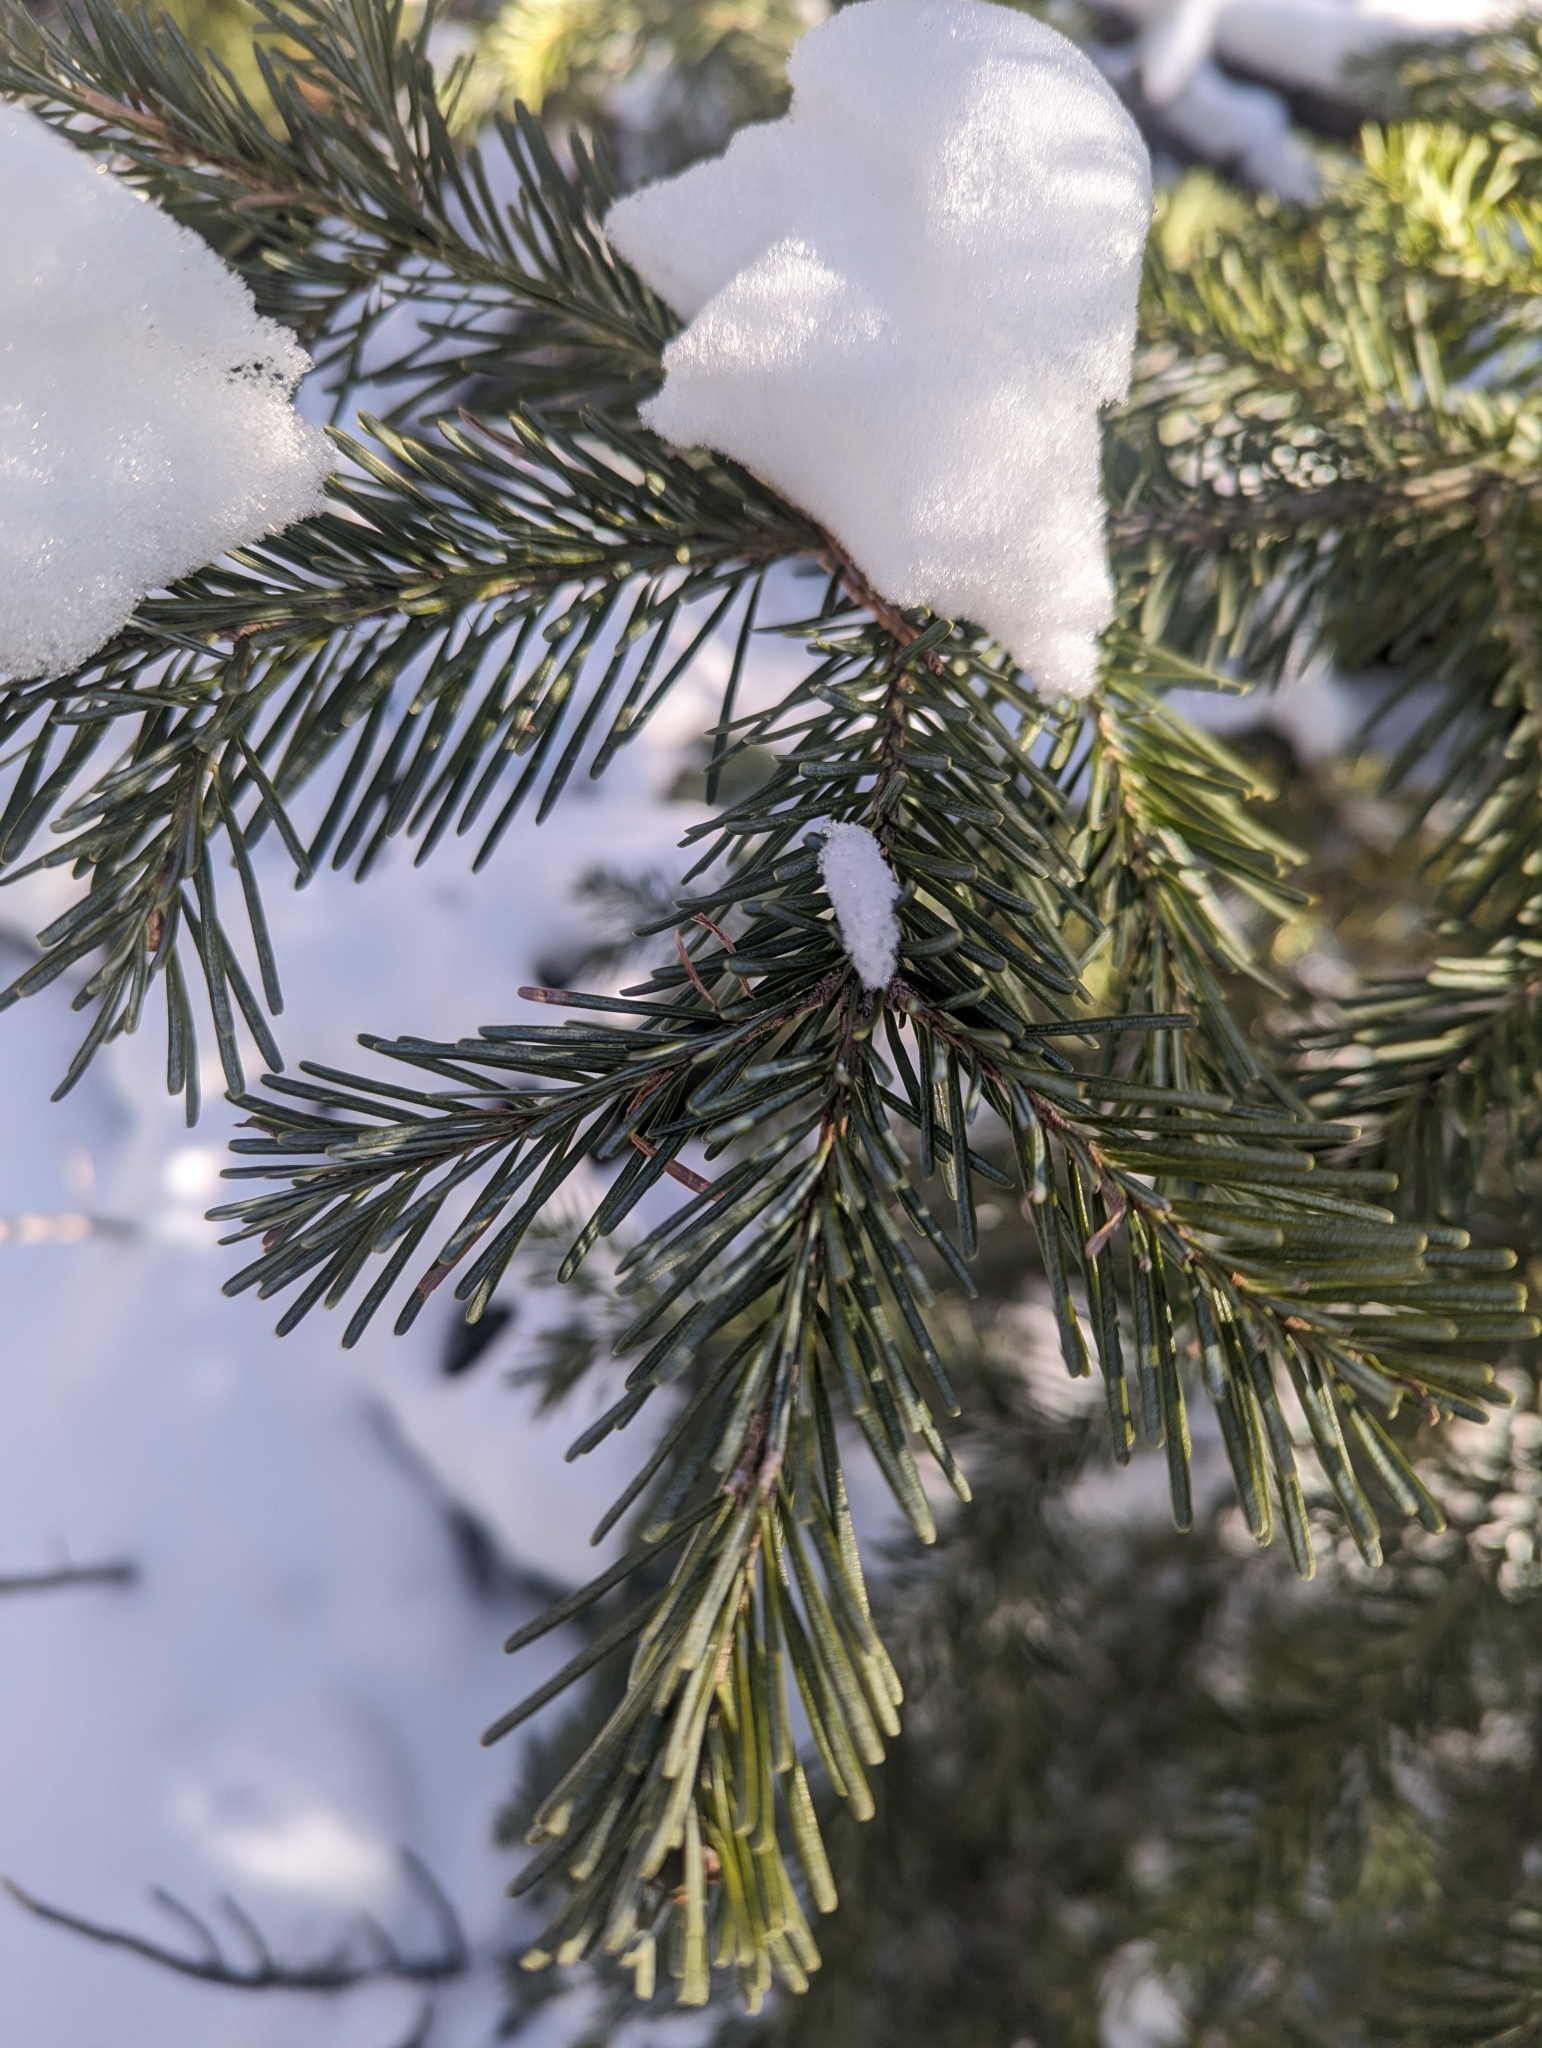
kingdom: Plantae
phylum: Tracheophyta
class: Pinopsida
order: Pinales
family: Pinaceae
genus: Abies
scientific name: Abies lasiocarpa
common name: Subalpine fir
